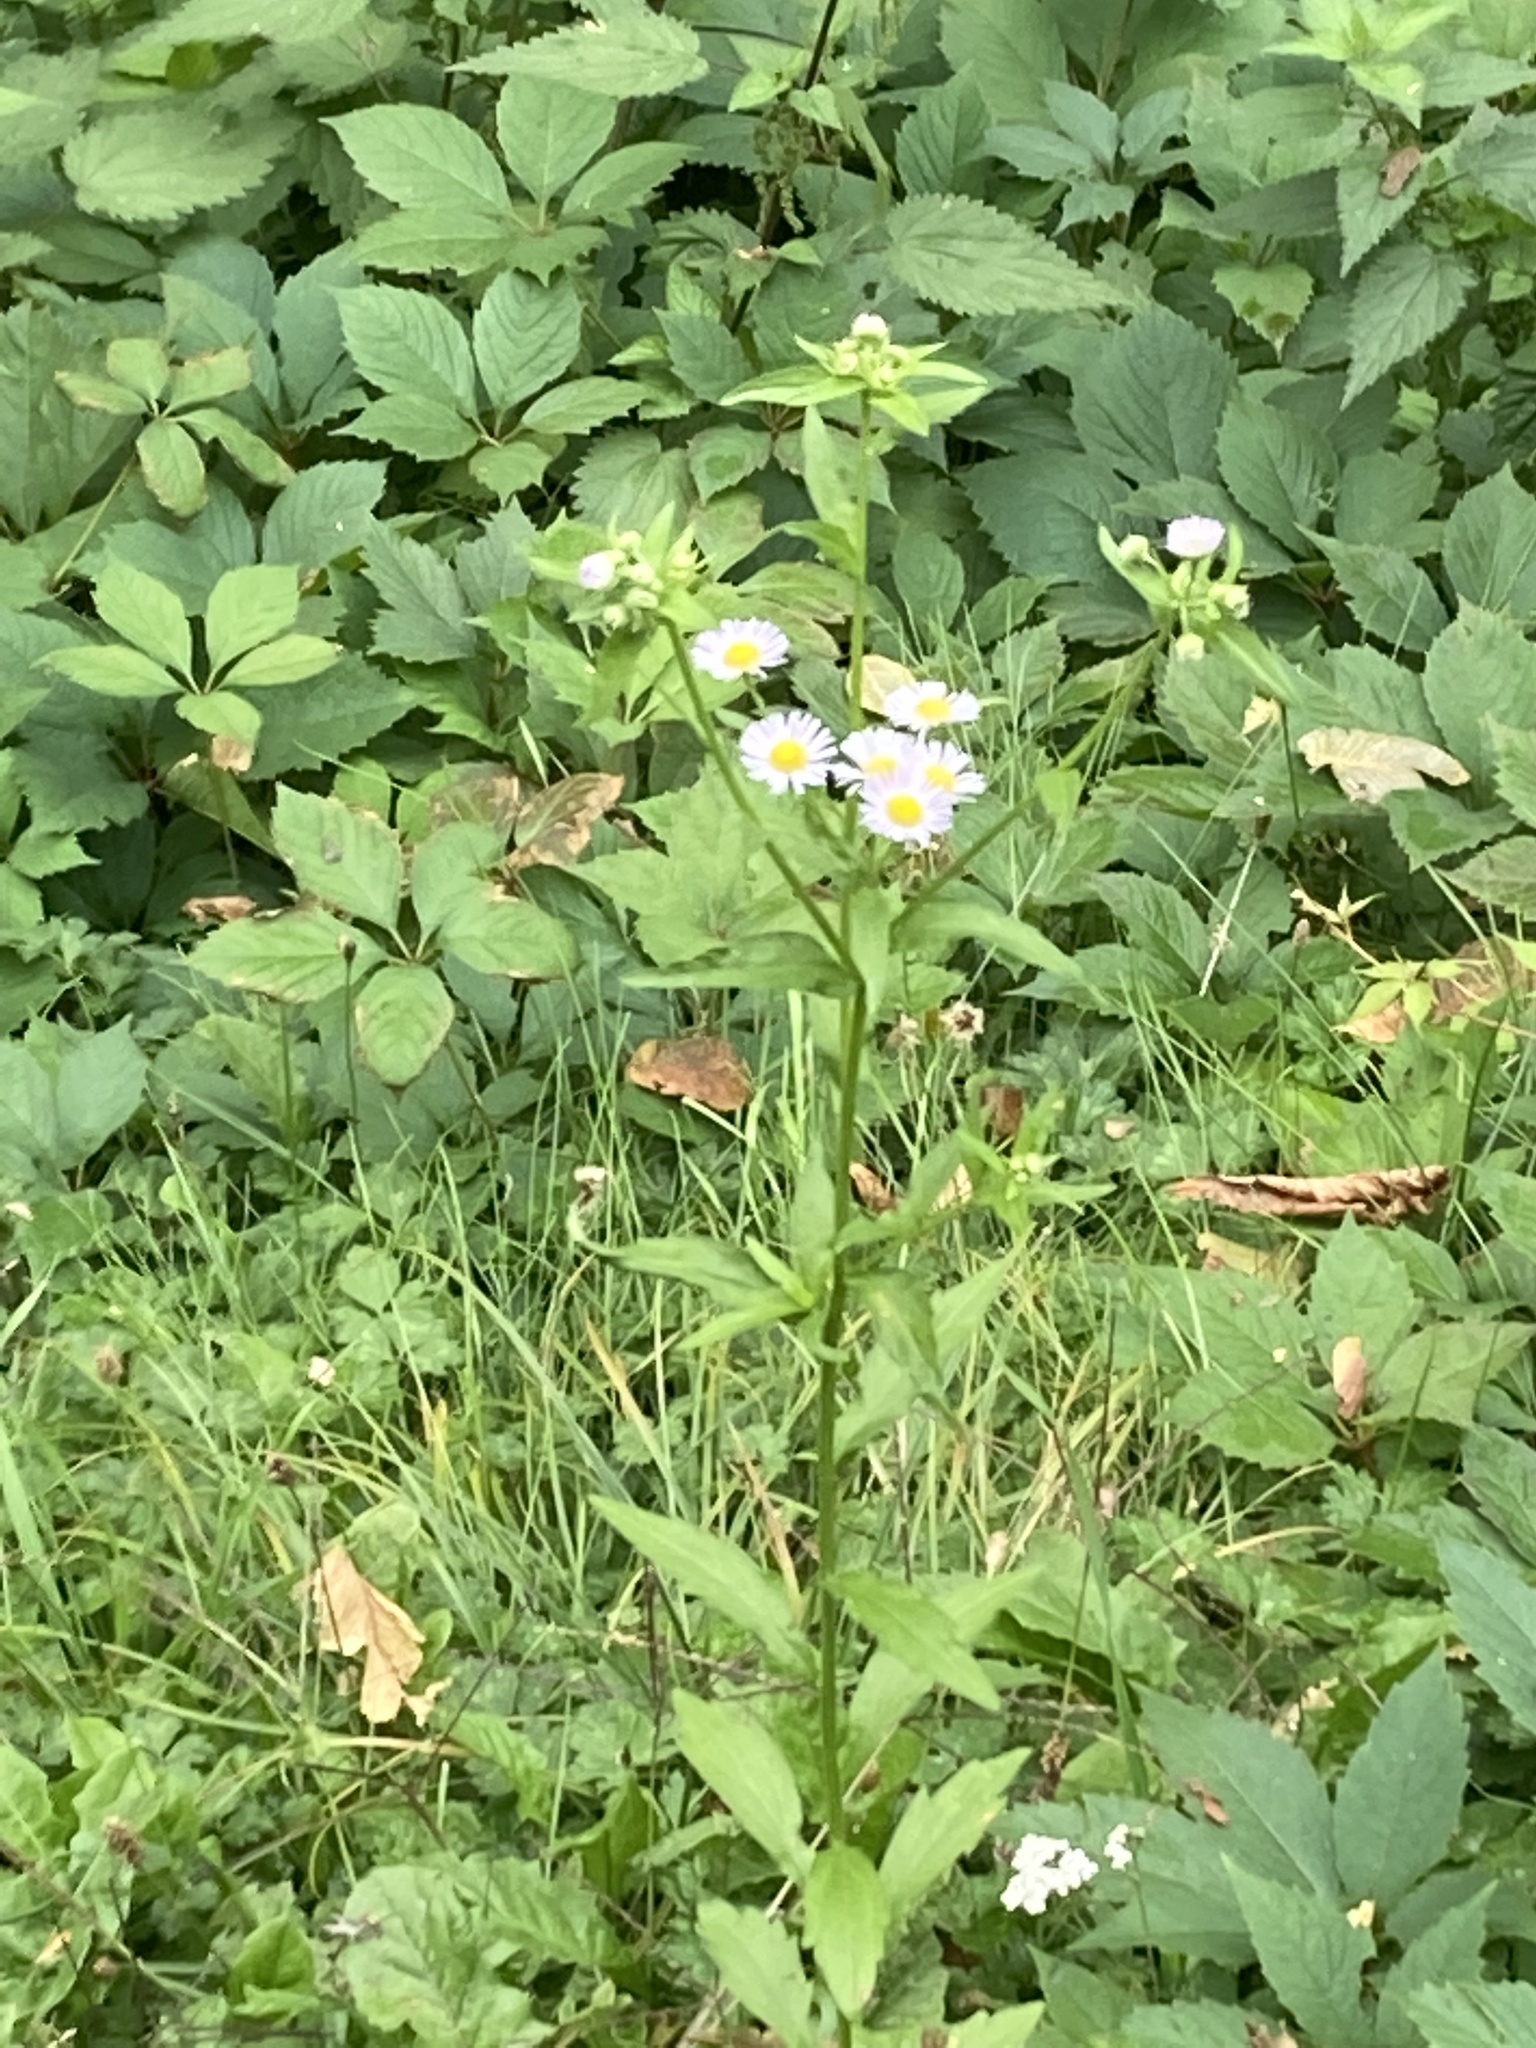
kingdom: Plantae
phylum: Tracheophyta
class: Magnoliopsida
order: Asterales
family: Asteraceae
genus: Erigeron
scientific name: Erigeron annuus
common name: Tall fleabane
